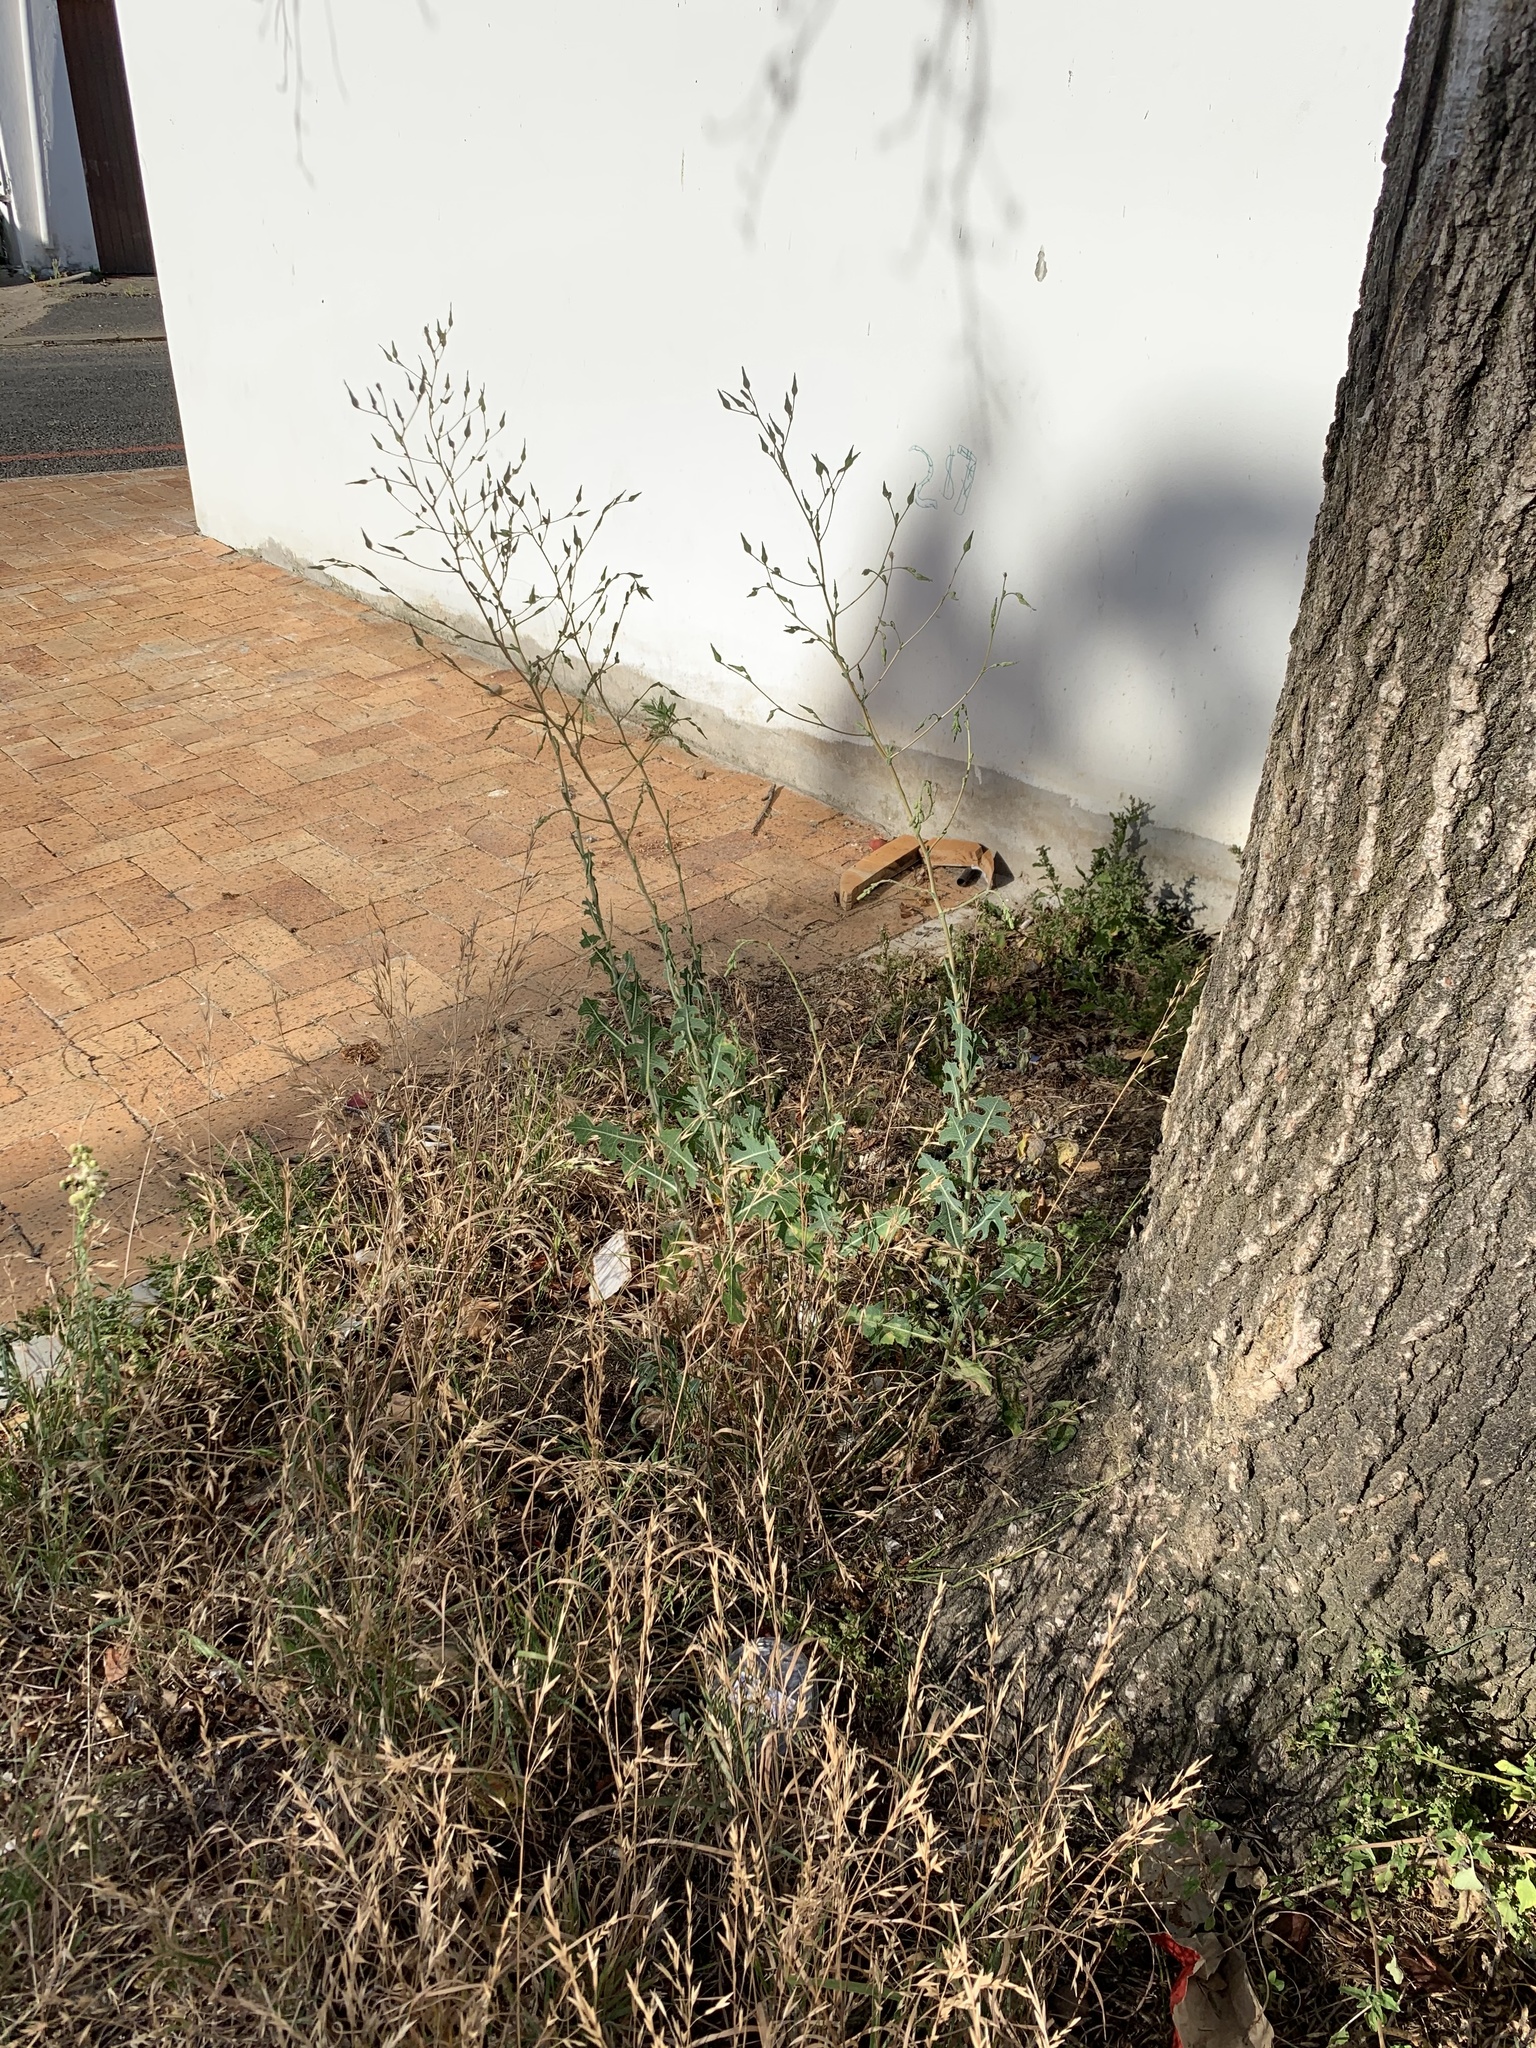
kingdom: Plantae
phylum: Tracheophyta
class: Magnoliopsida
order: Asterales
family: Asteraceae
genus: Lactuca
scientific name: Lactuca serriola
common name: Prickly lettuce
